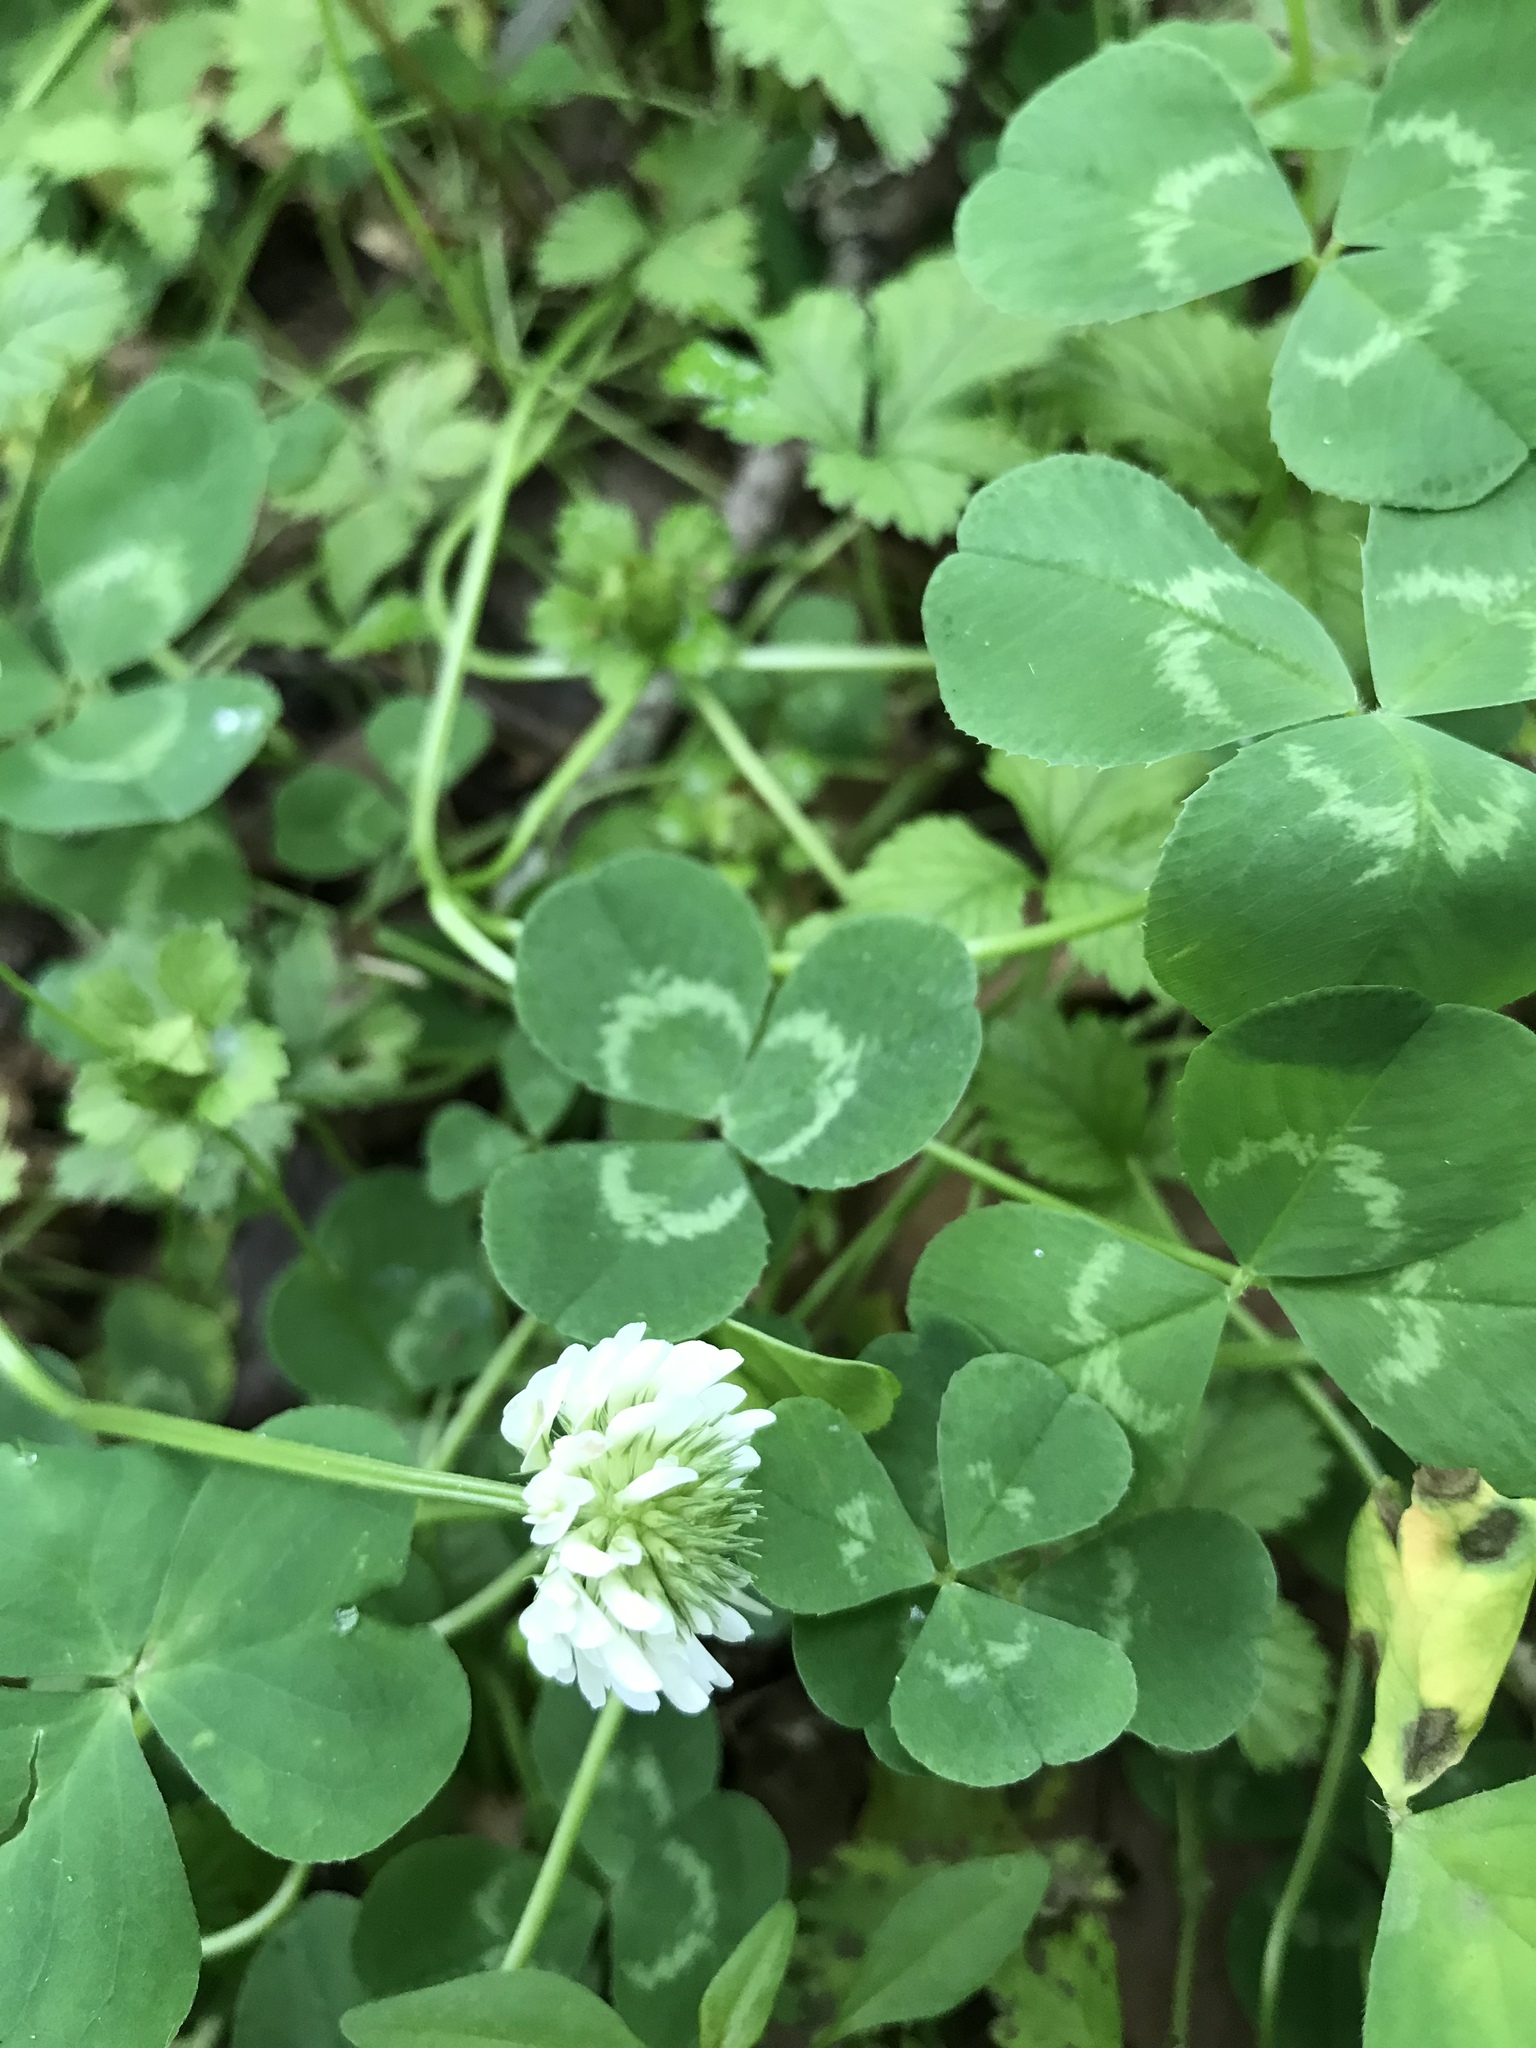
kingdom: Plantae
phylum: Tracheophyta
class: Magnoliopsida
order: Fabales
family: Fabaceae
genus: Trifolium
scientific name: Trifolium repens
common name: White clover
